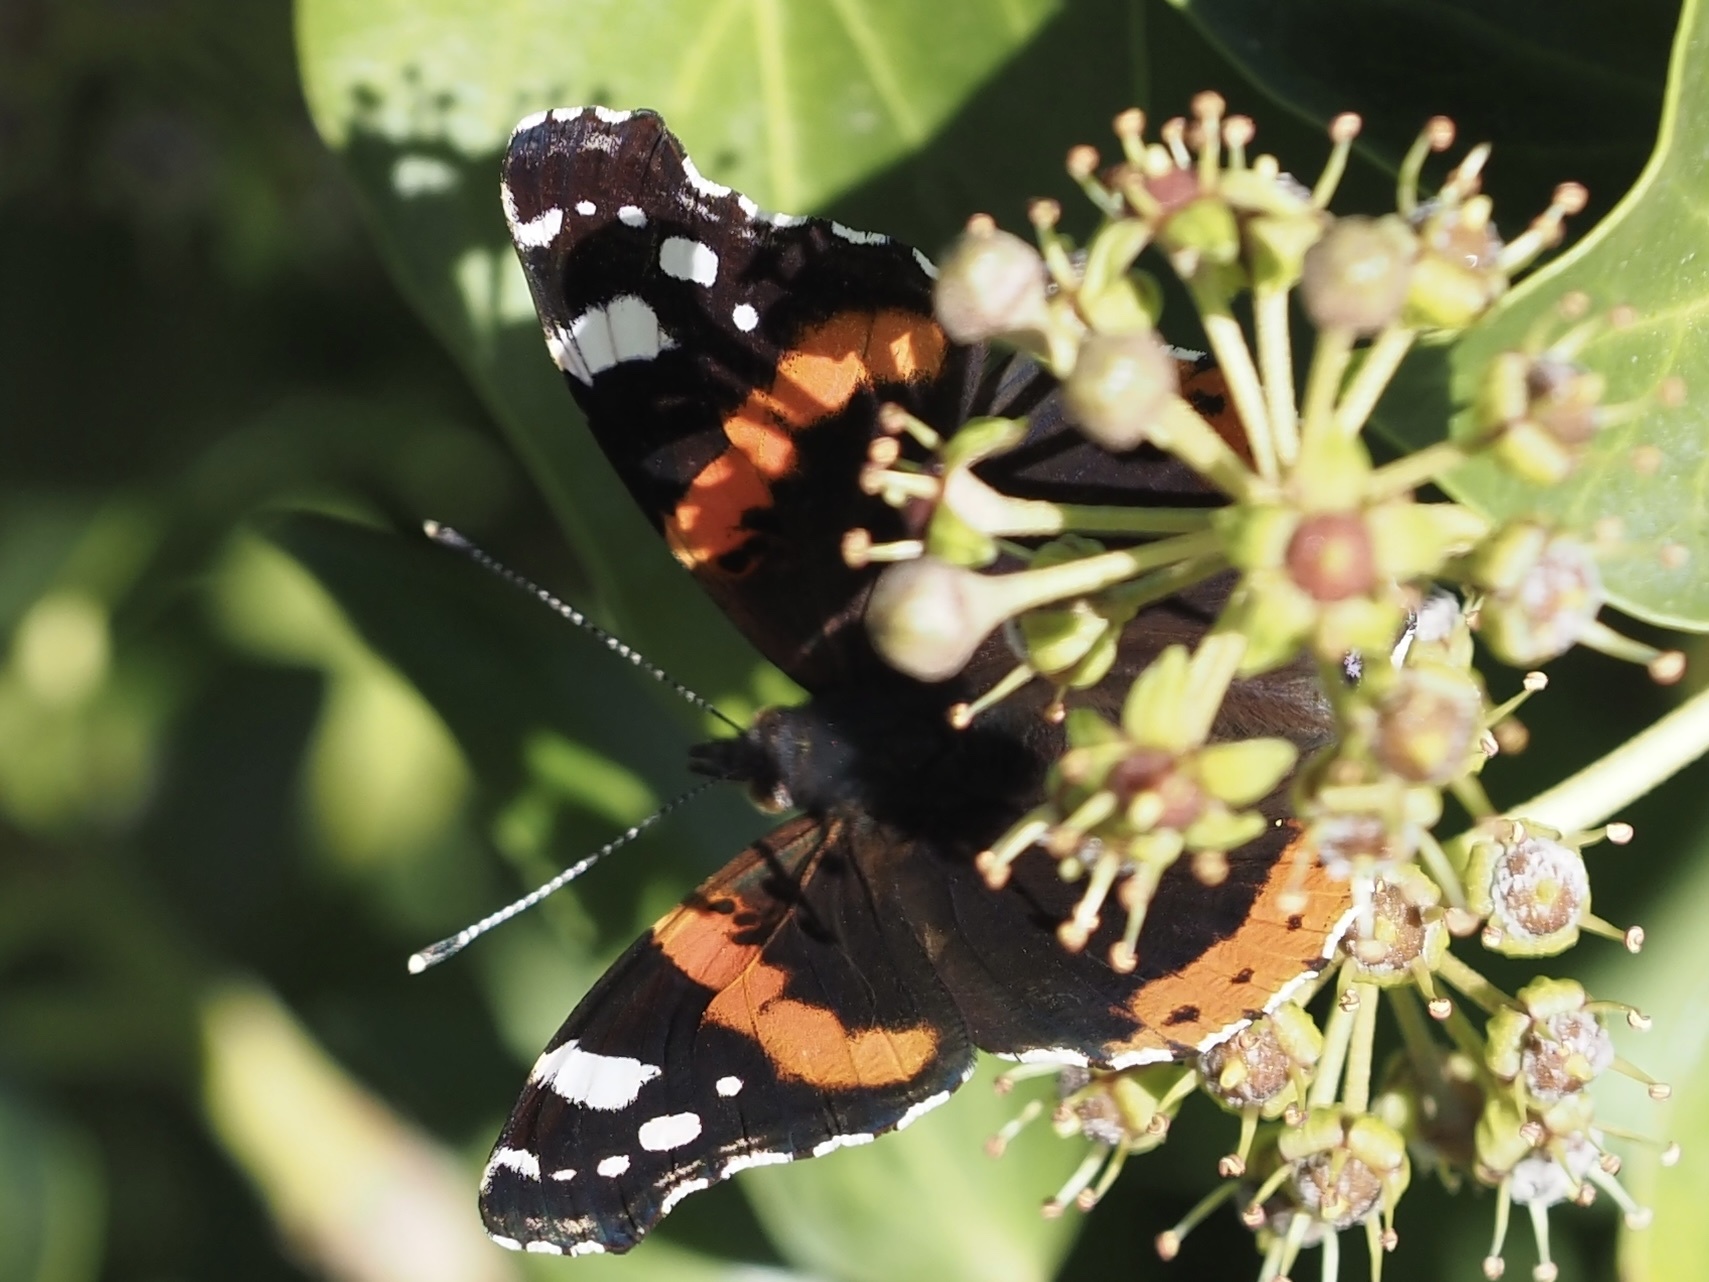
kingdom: Animalia
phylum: Arthropoda
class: Insecta
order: Lepidoptera
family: Nymphalidae
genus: Vanessa
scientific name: Vanessa atalanta
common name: Red admiral
